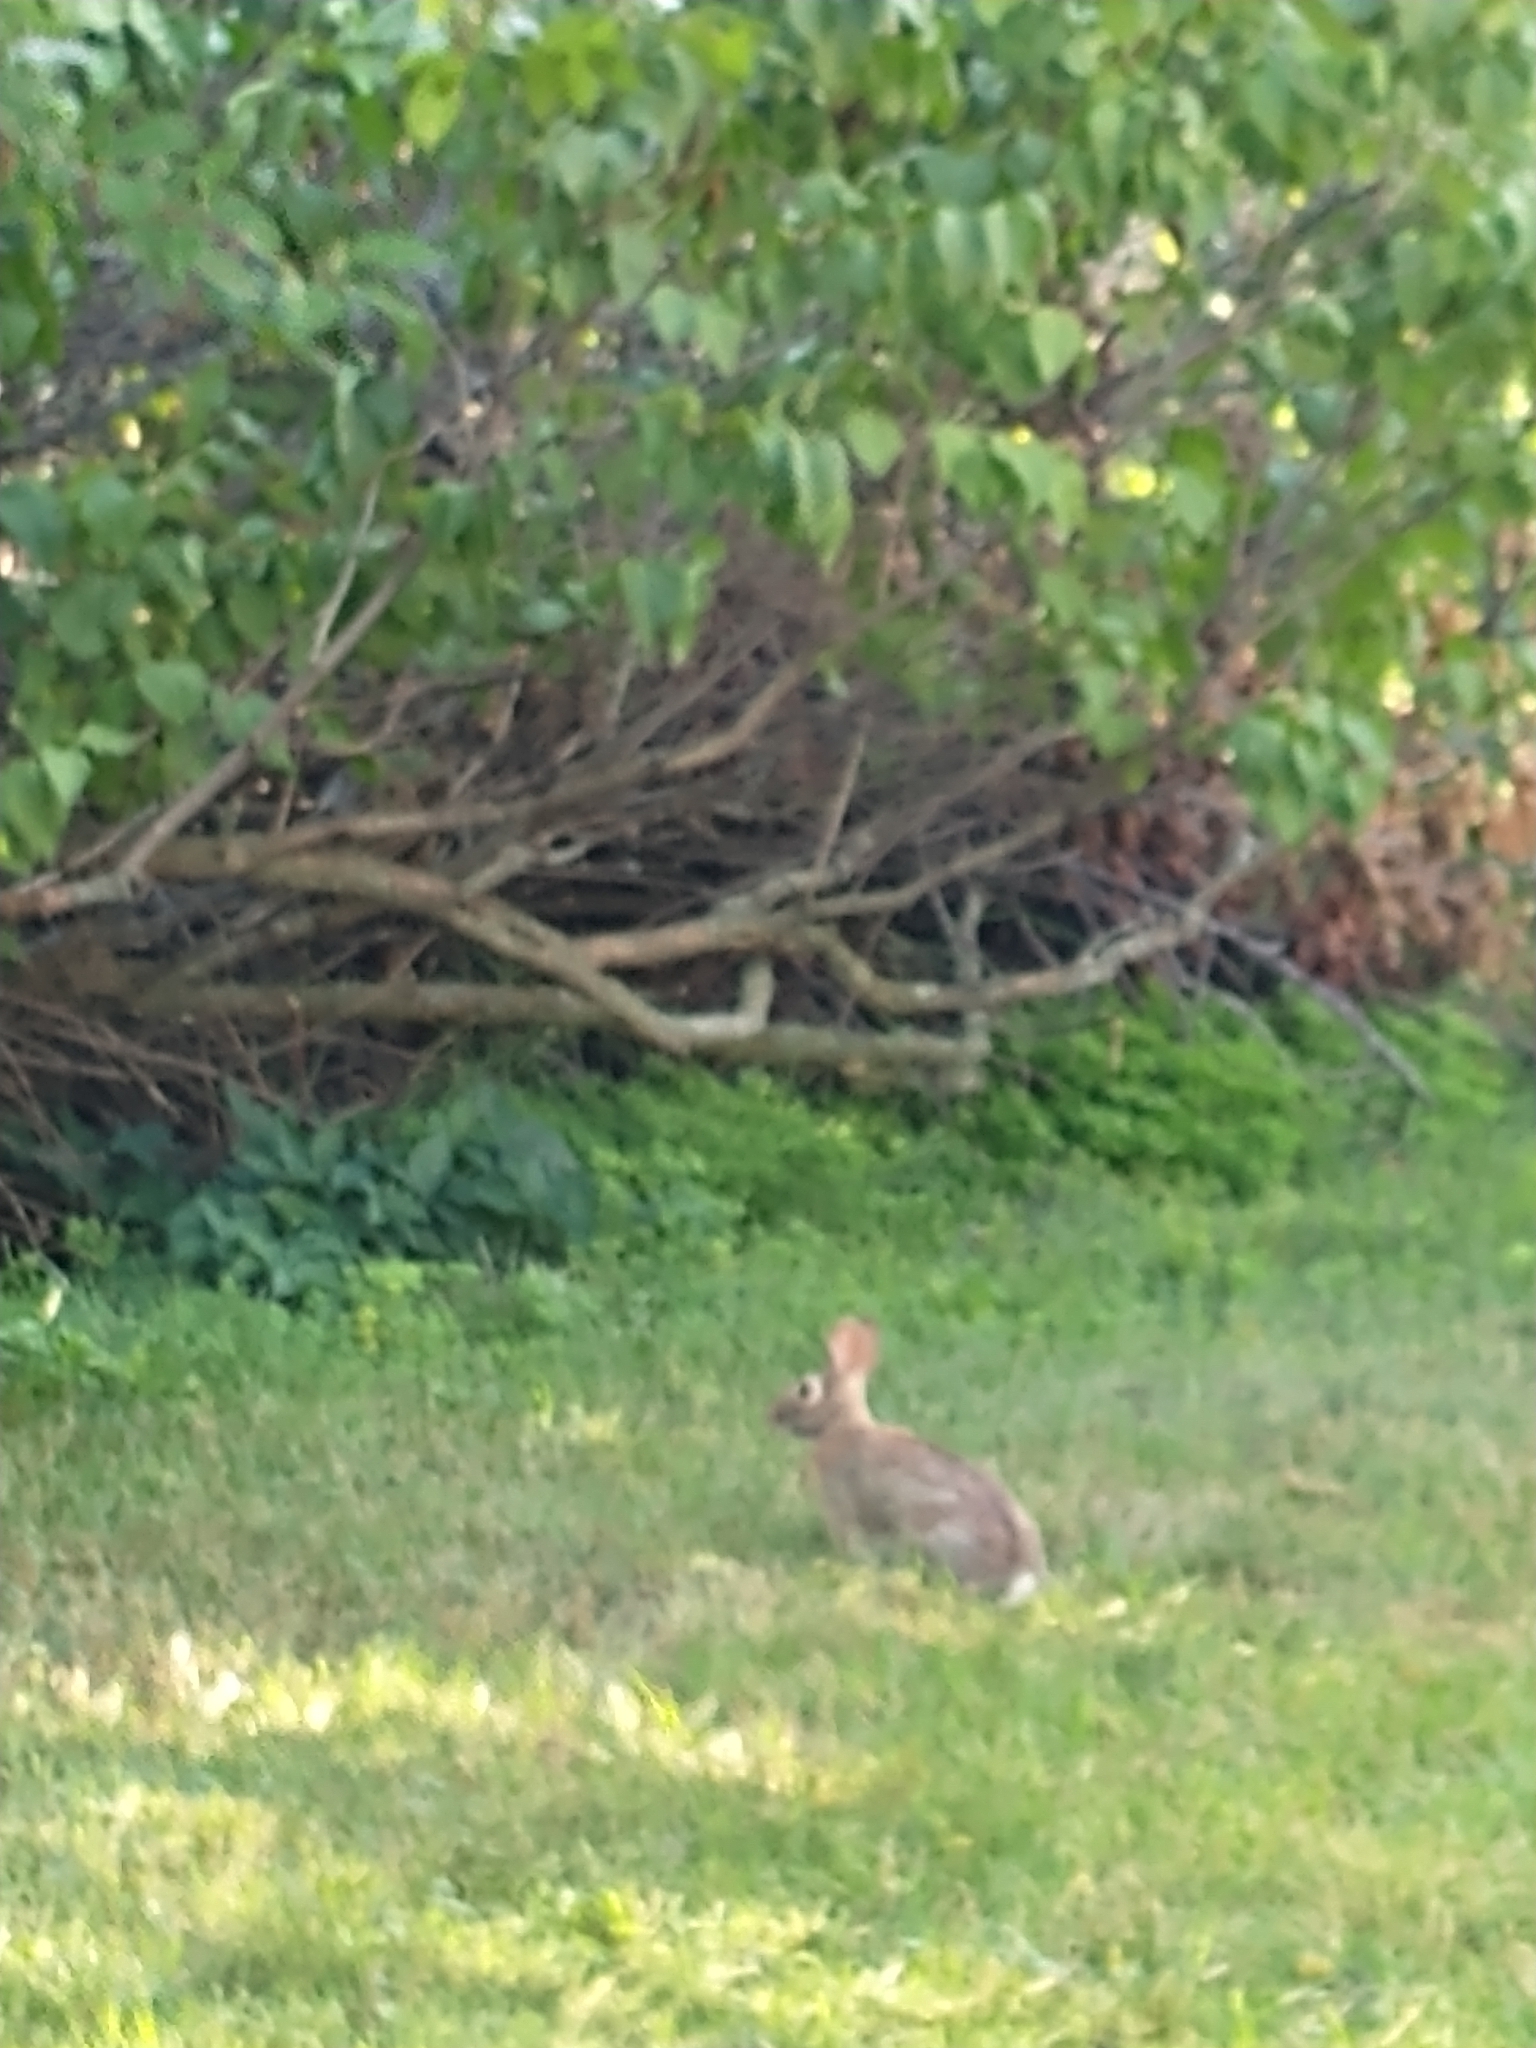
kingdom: Animalia
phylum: Chordata
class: Mammalia
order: Lagomorpha
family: Leporidae
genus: Sylvilagus
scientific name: Sylvilagus floridanus
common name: Eastern cottontail
